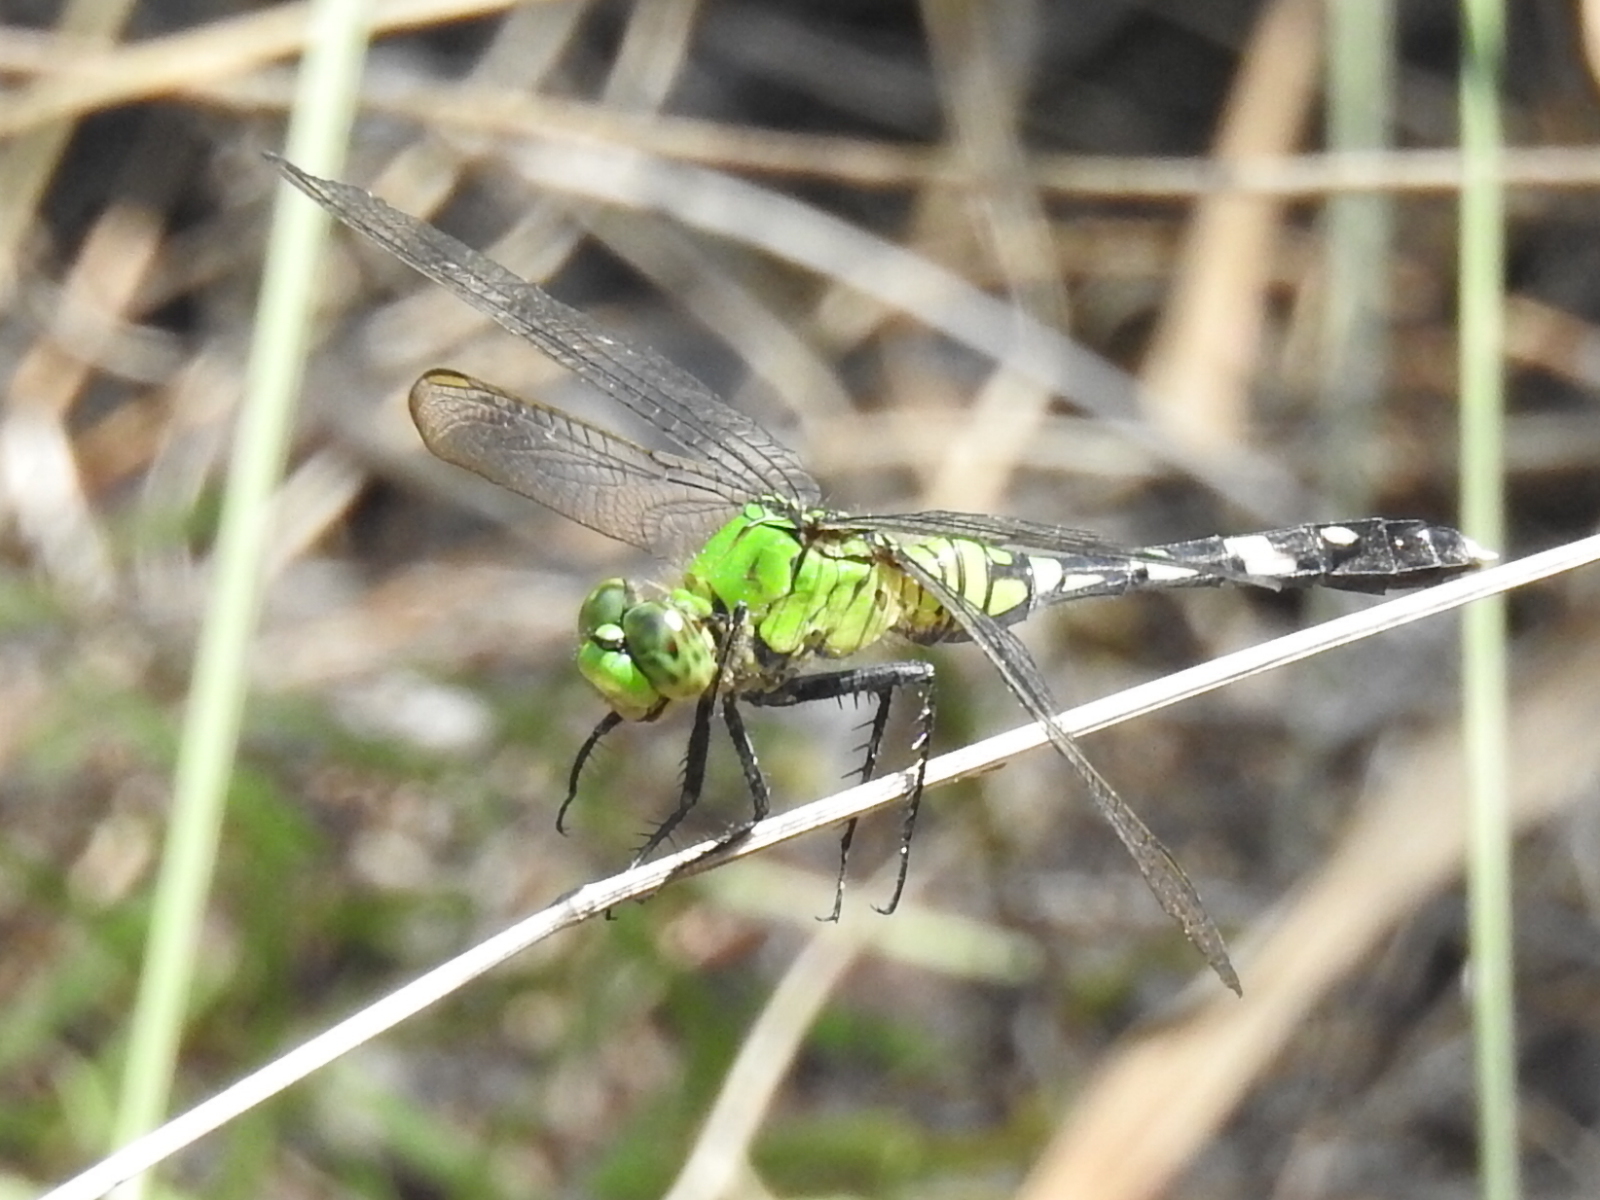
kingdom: Animalia
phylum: Arthropoda
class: Insecta
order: Odonata
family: Libellulidae
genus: Erythemis
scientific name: Erythemis simplicicollis
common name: Eastern pondhawk
